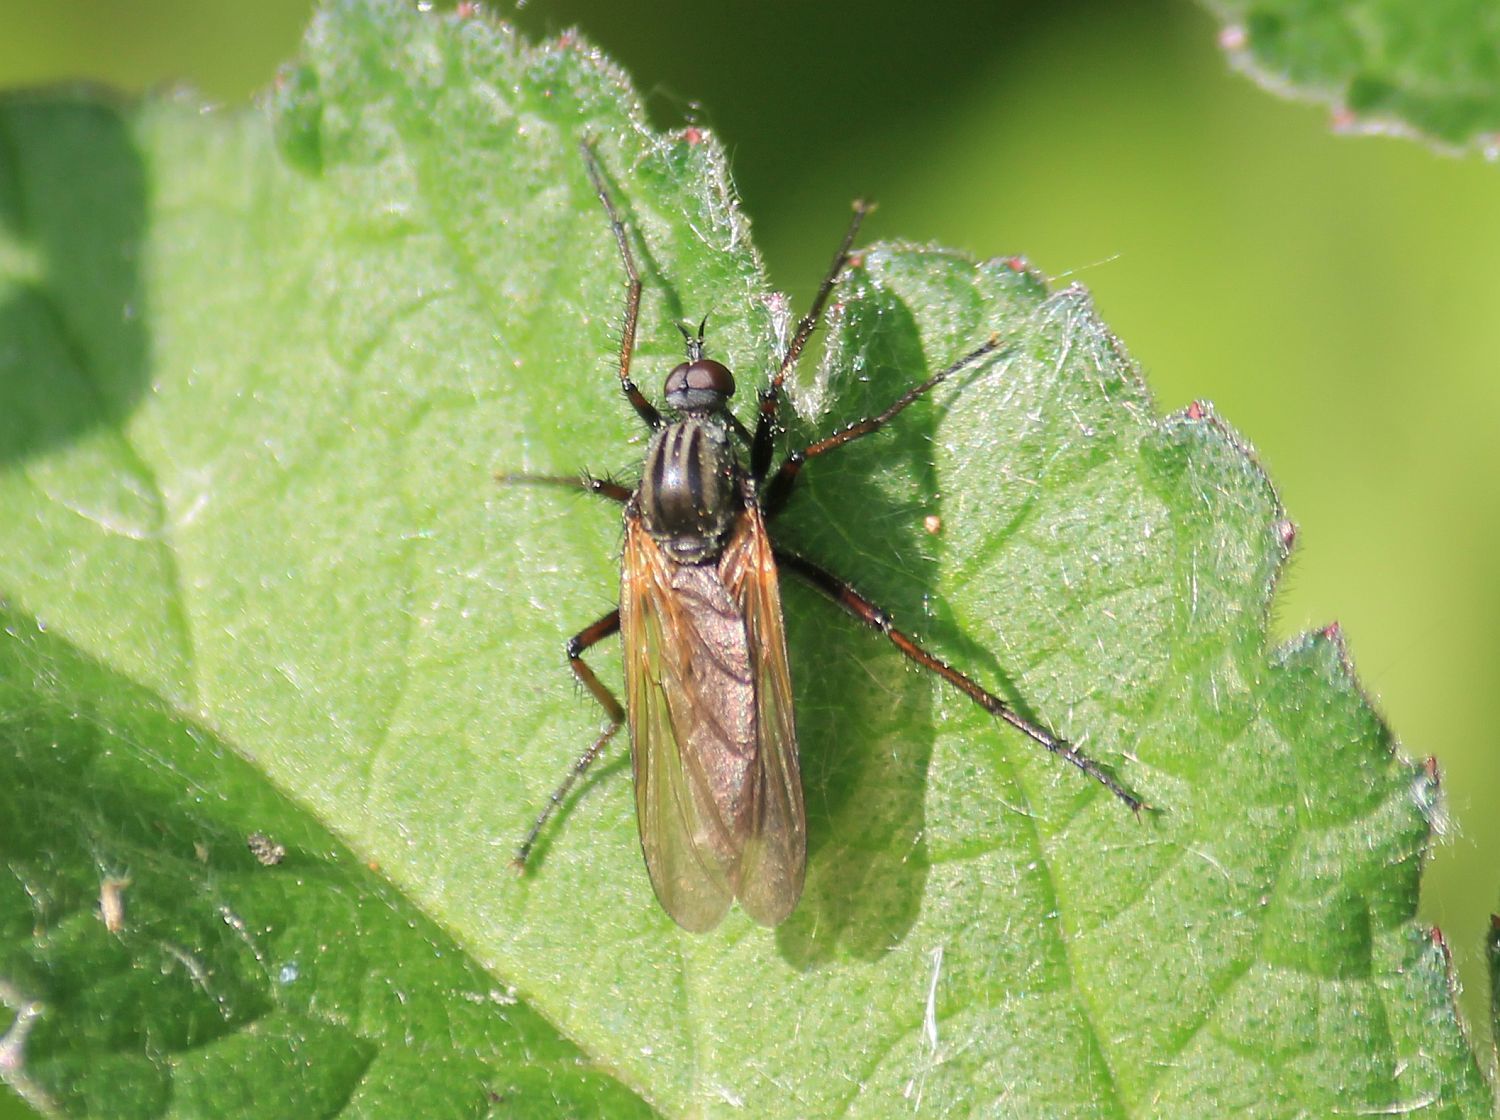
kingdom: Animalia
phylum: Arthropoda
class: Insecta
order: Diptera
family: Empididae
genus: Empis
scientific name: Empis tessellata
